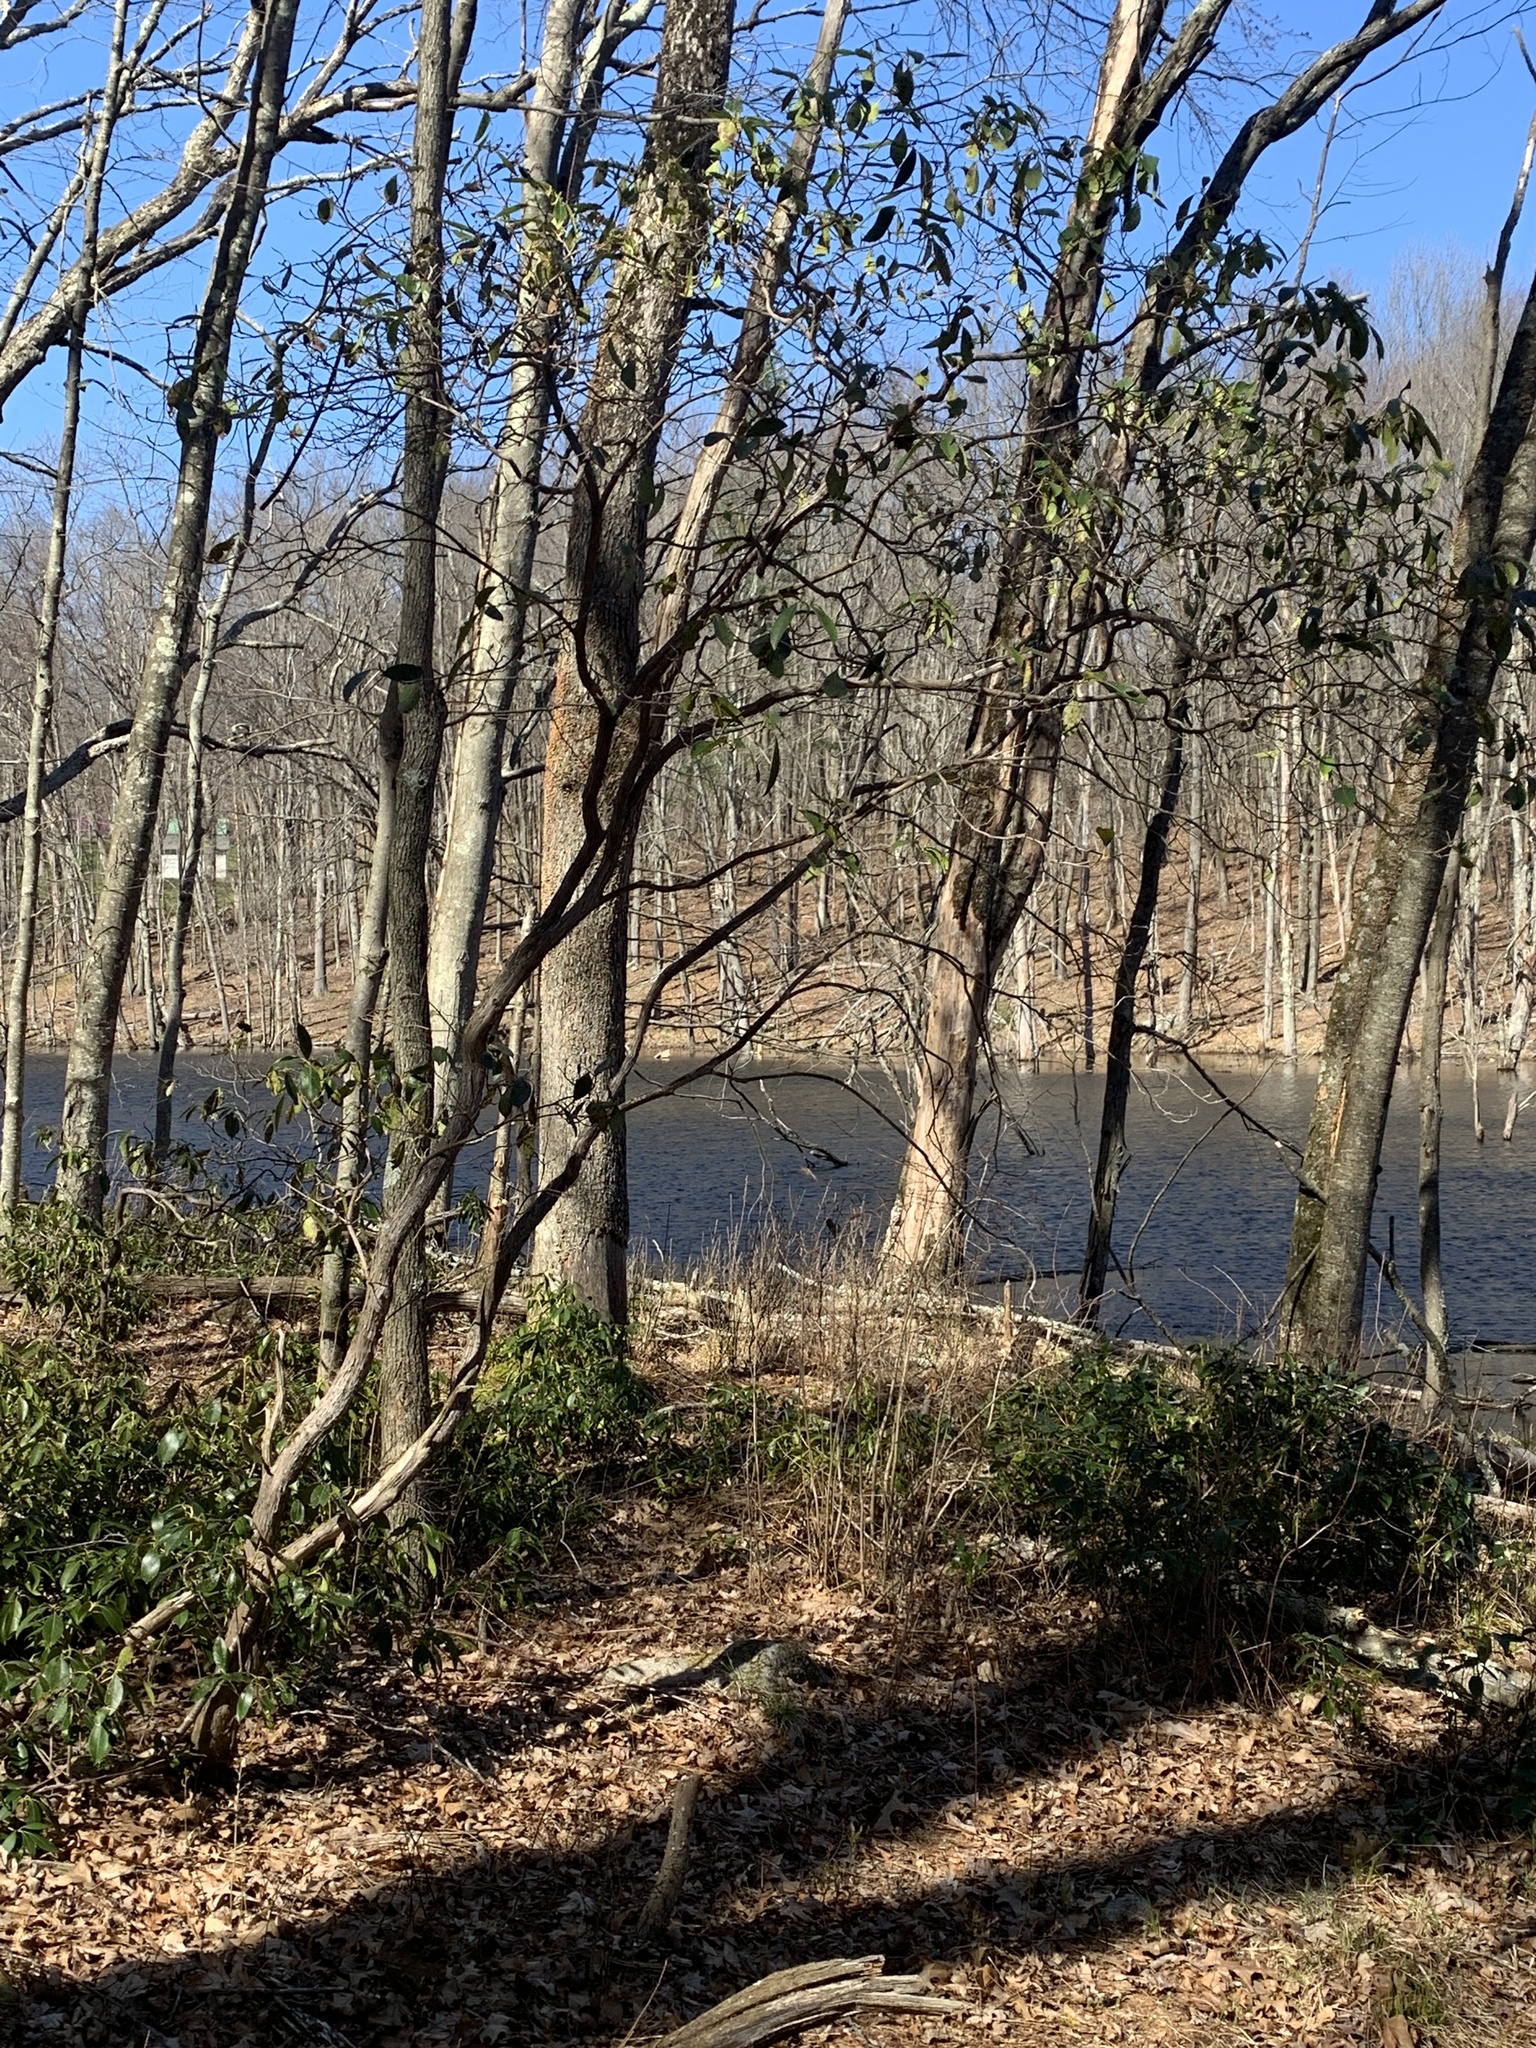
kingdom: Plantae
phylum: Tracheophyta
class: Magnoliopsida
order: Ericales
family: Ericaceae
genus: Kalmia
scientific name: Kalmia latifolia
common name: Mountain-laurel
